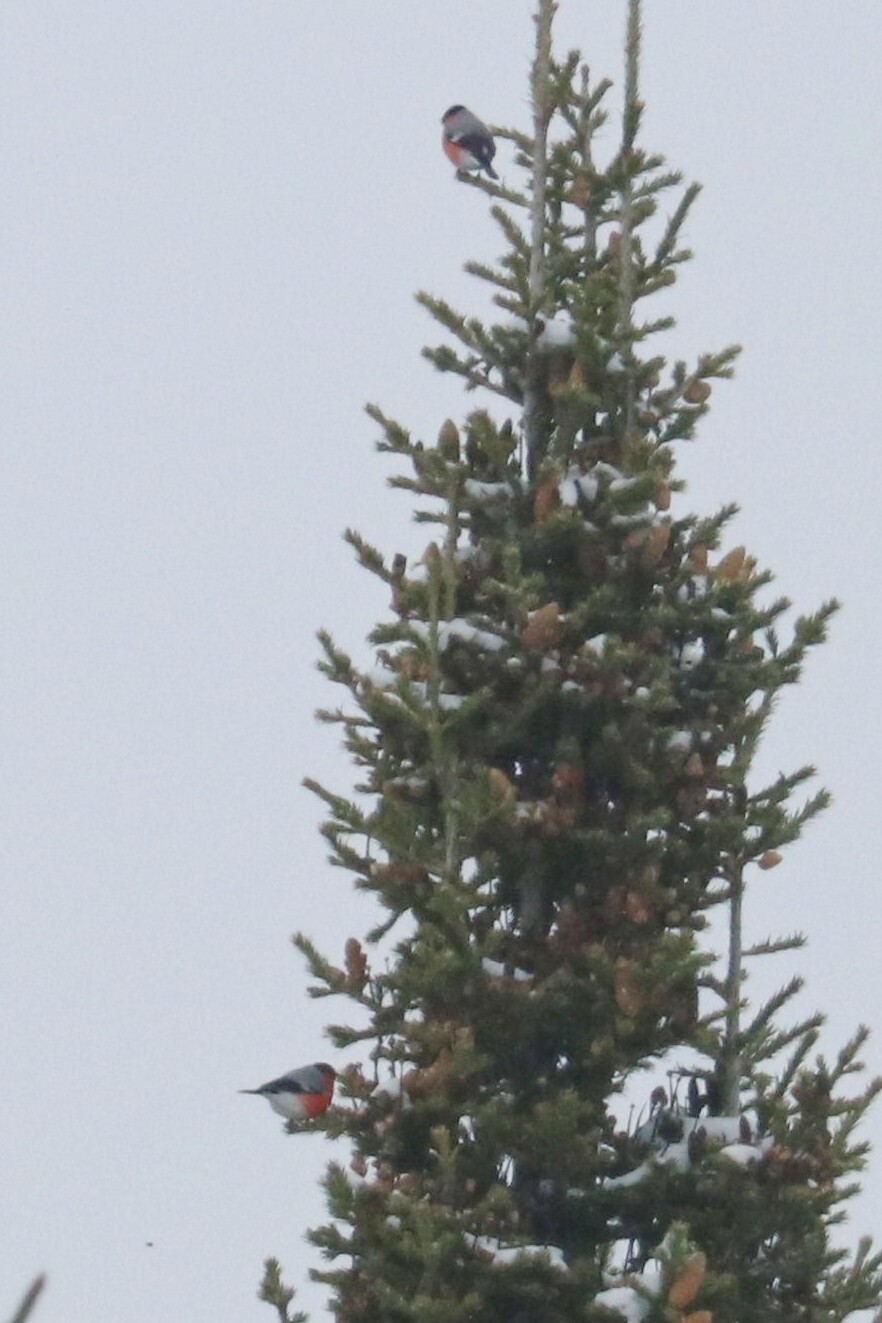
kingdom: Animalia
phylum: Chordata
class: Aves
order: Passeriformes
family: Fringillidae
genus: Pyrrhula
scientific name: Pyrrhula pyrrhula
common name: Eurasian bullfinch
